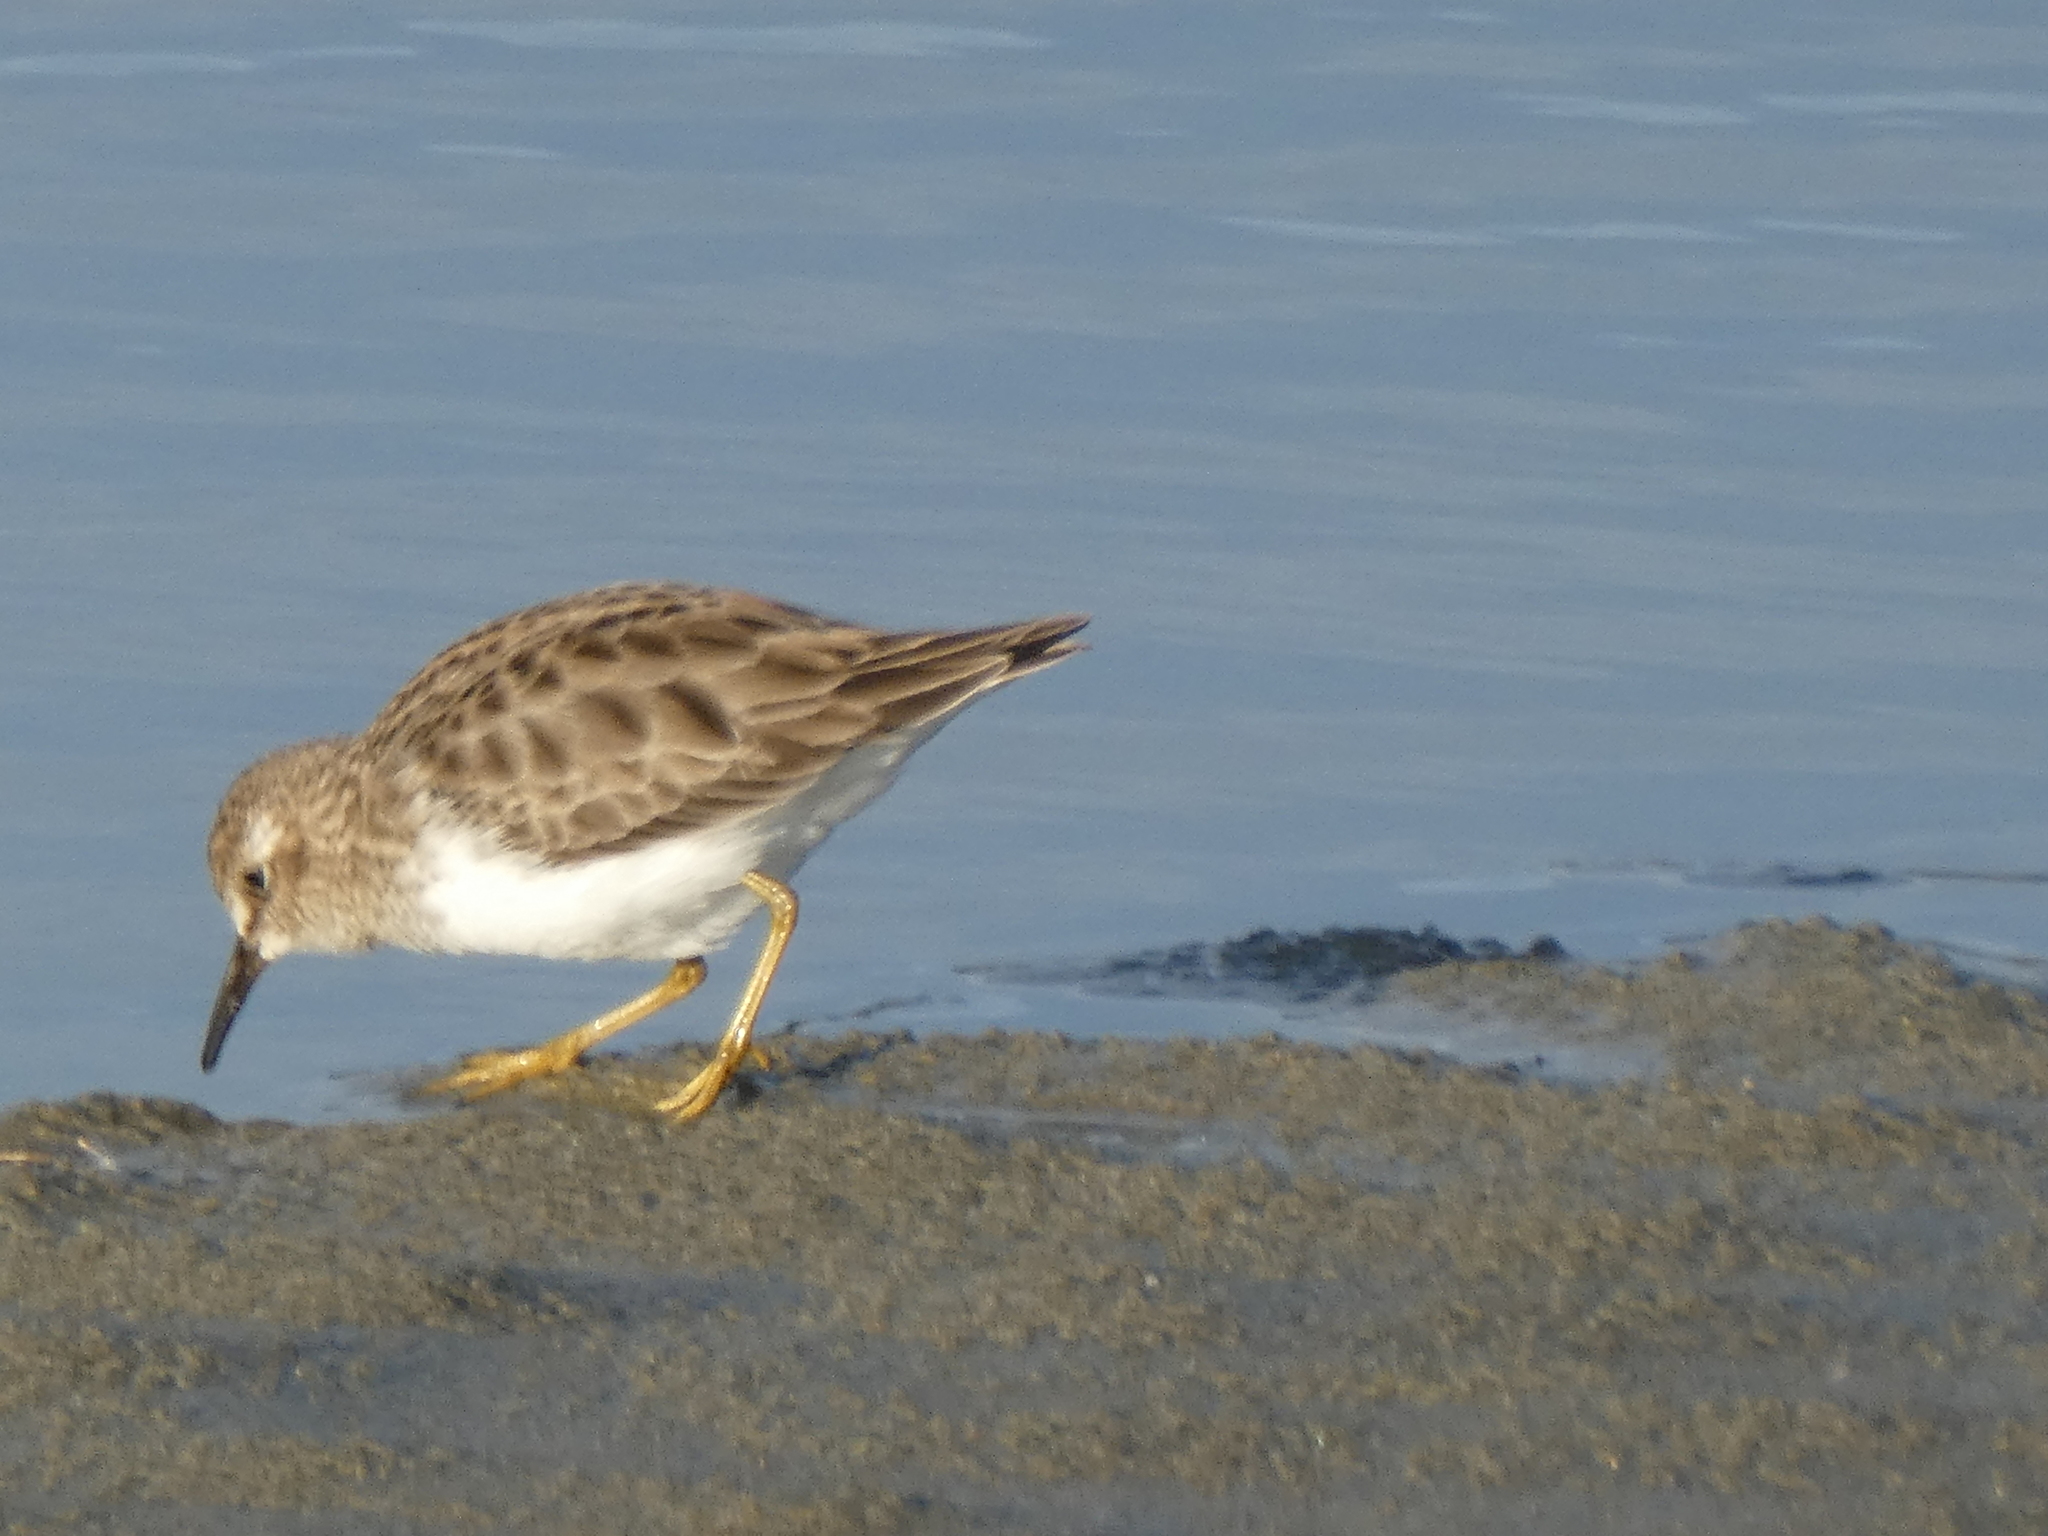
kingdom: Animalia
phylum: Chordata
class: Aves
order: Charadriiformes
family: Scolopacidae
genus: Calidris
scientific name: Calidris minutilla
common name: Least sandpiper
